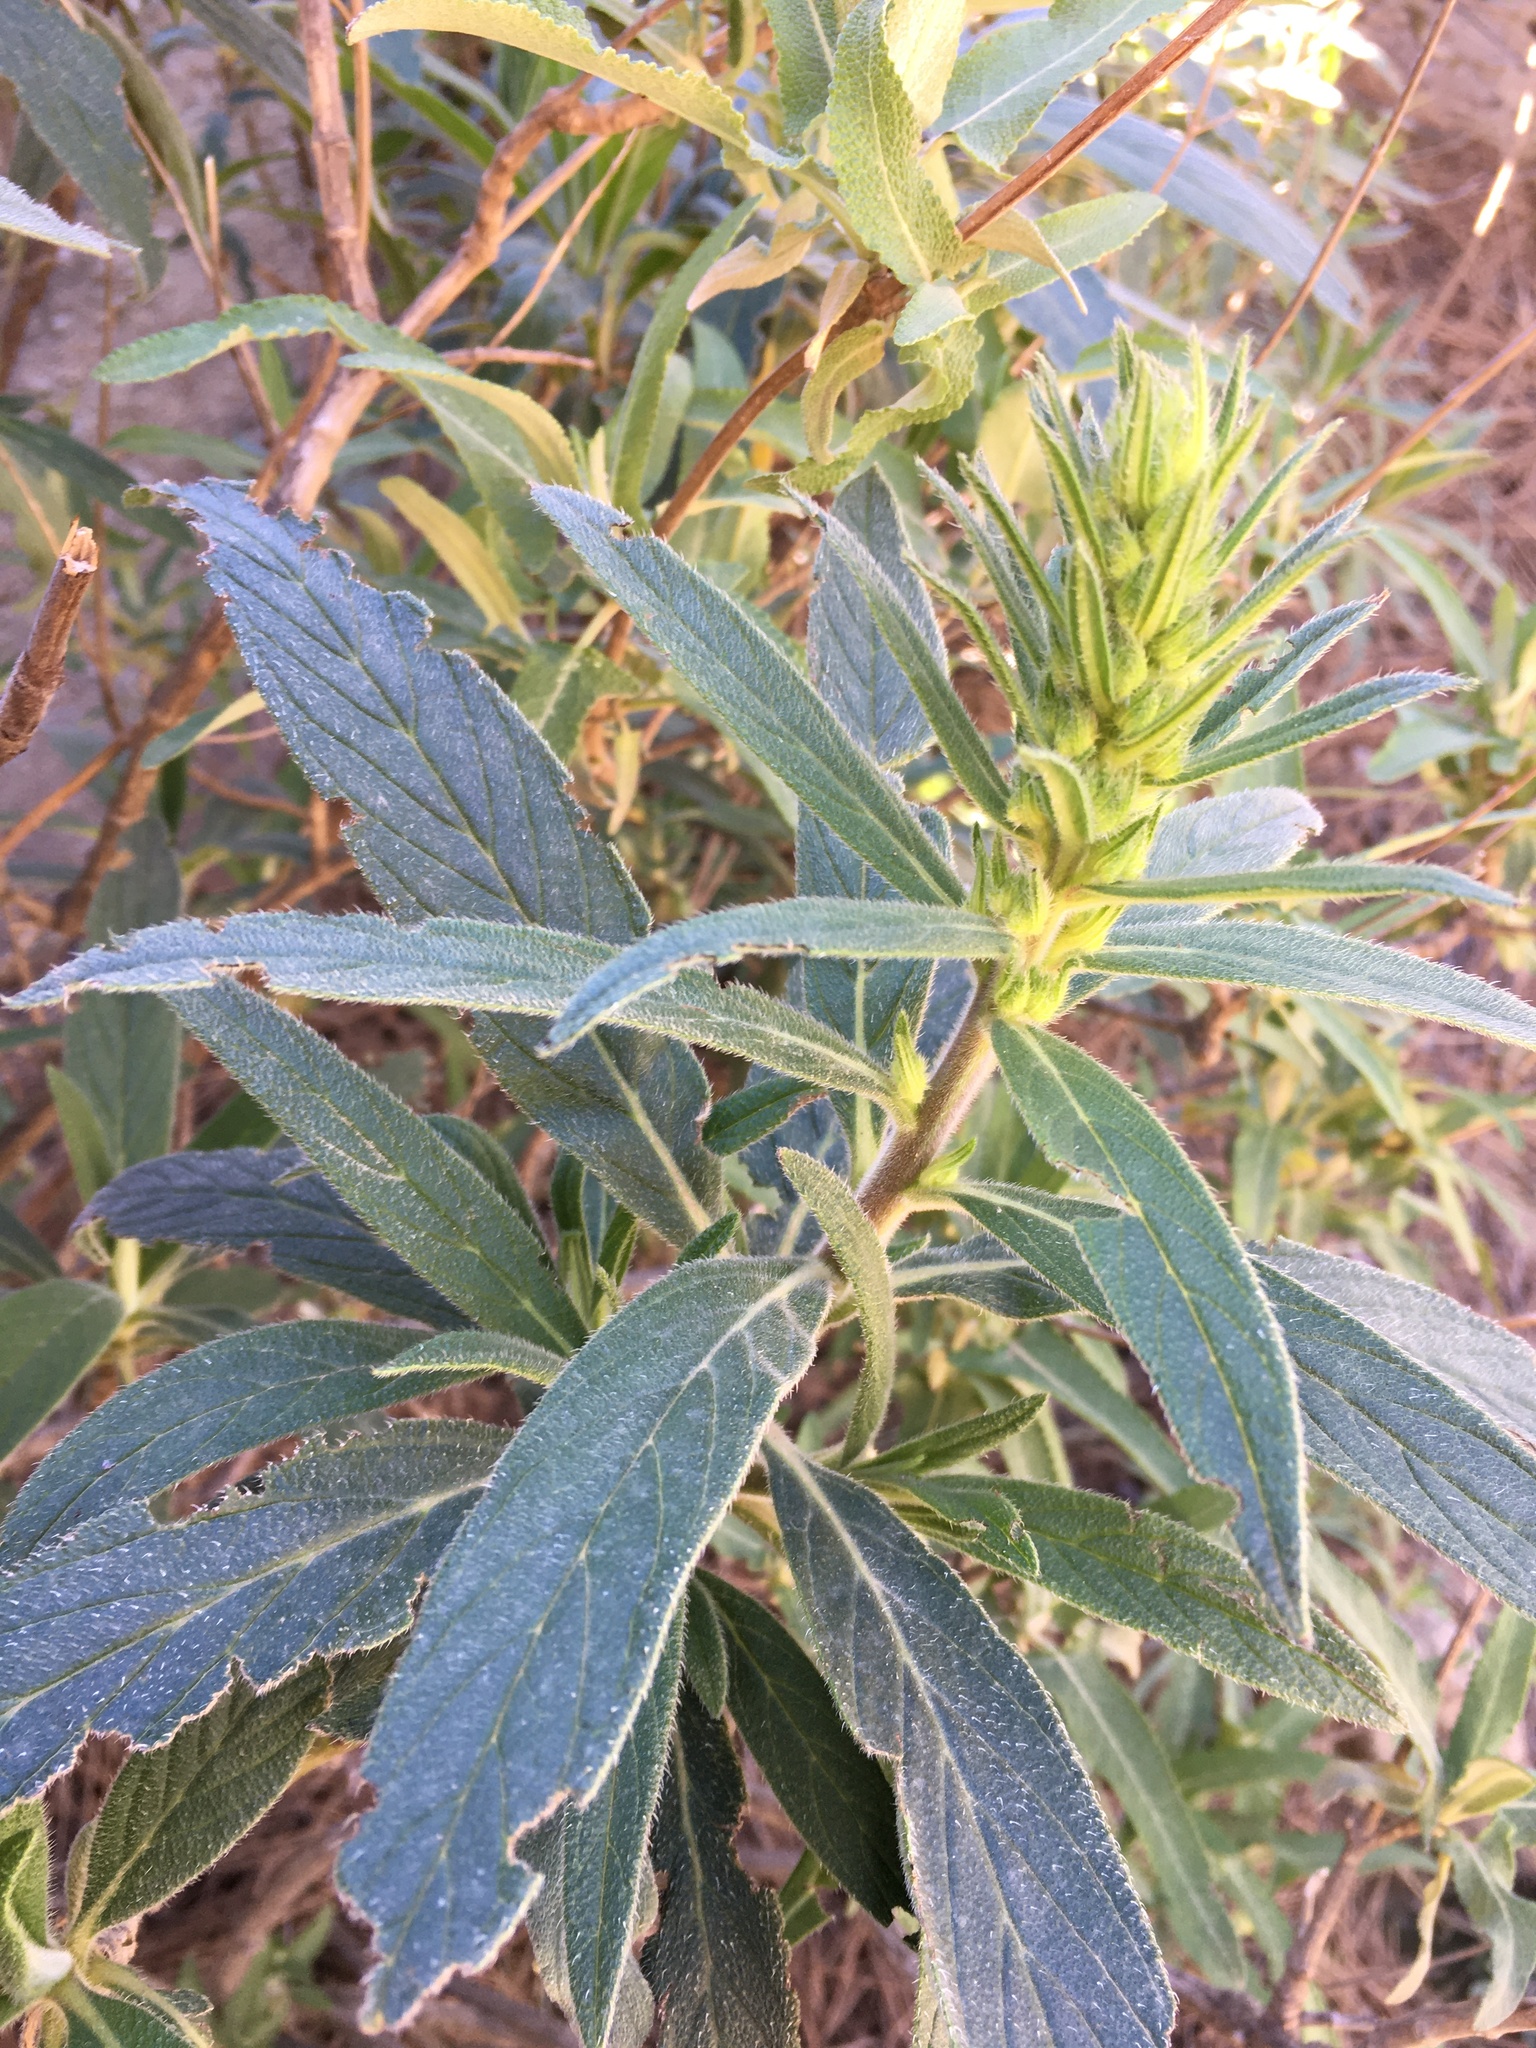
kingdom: Plantae
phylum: Tracheophyta
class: Magnoliopsida
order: Lamiales
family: Lamiaceae
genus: Leonotis
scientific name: Leonotis leonurus
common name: Lion's ear
